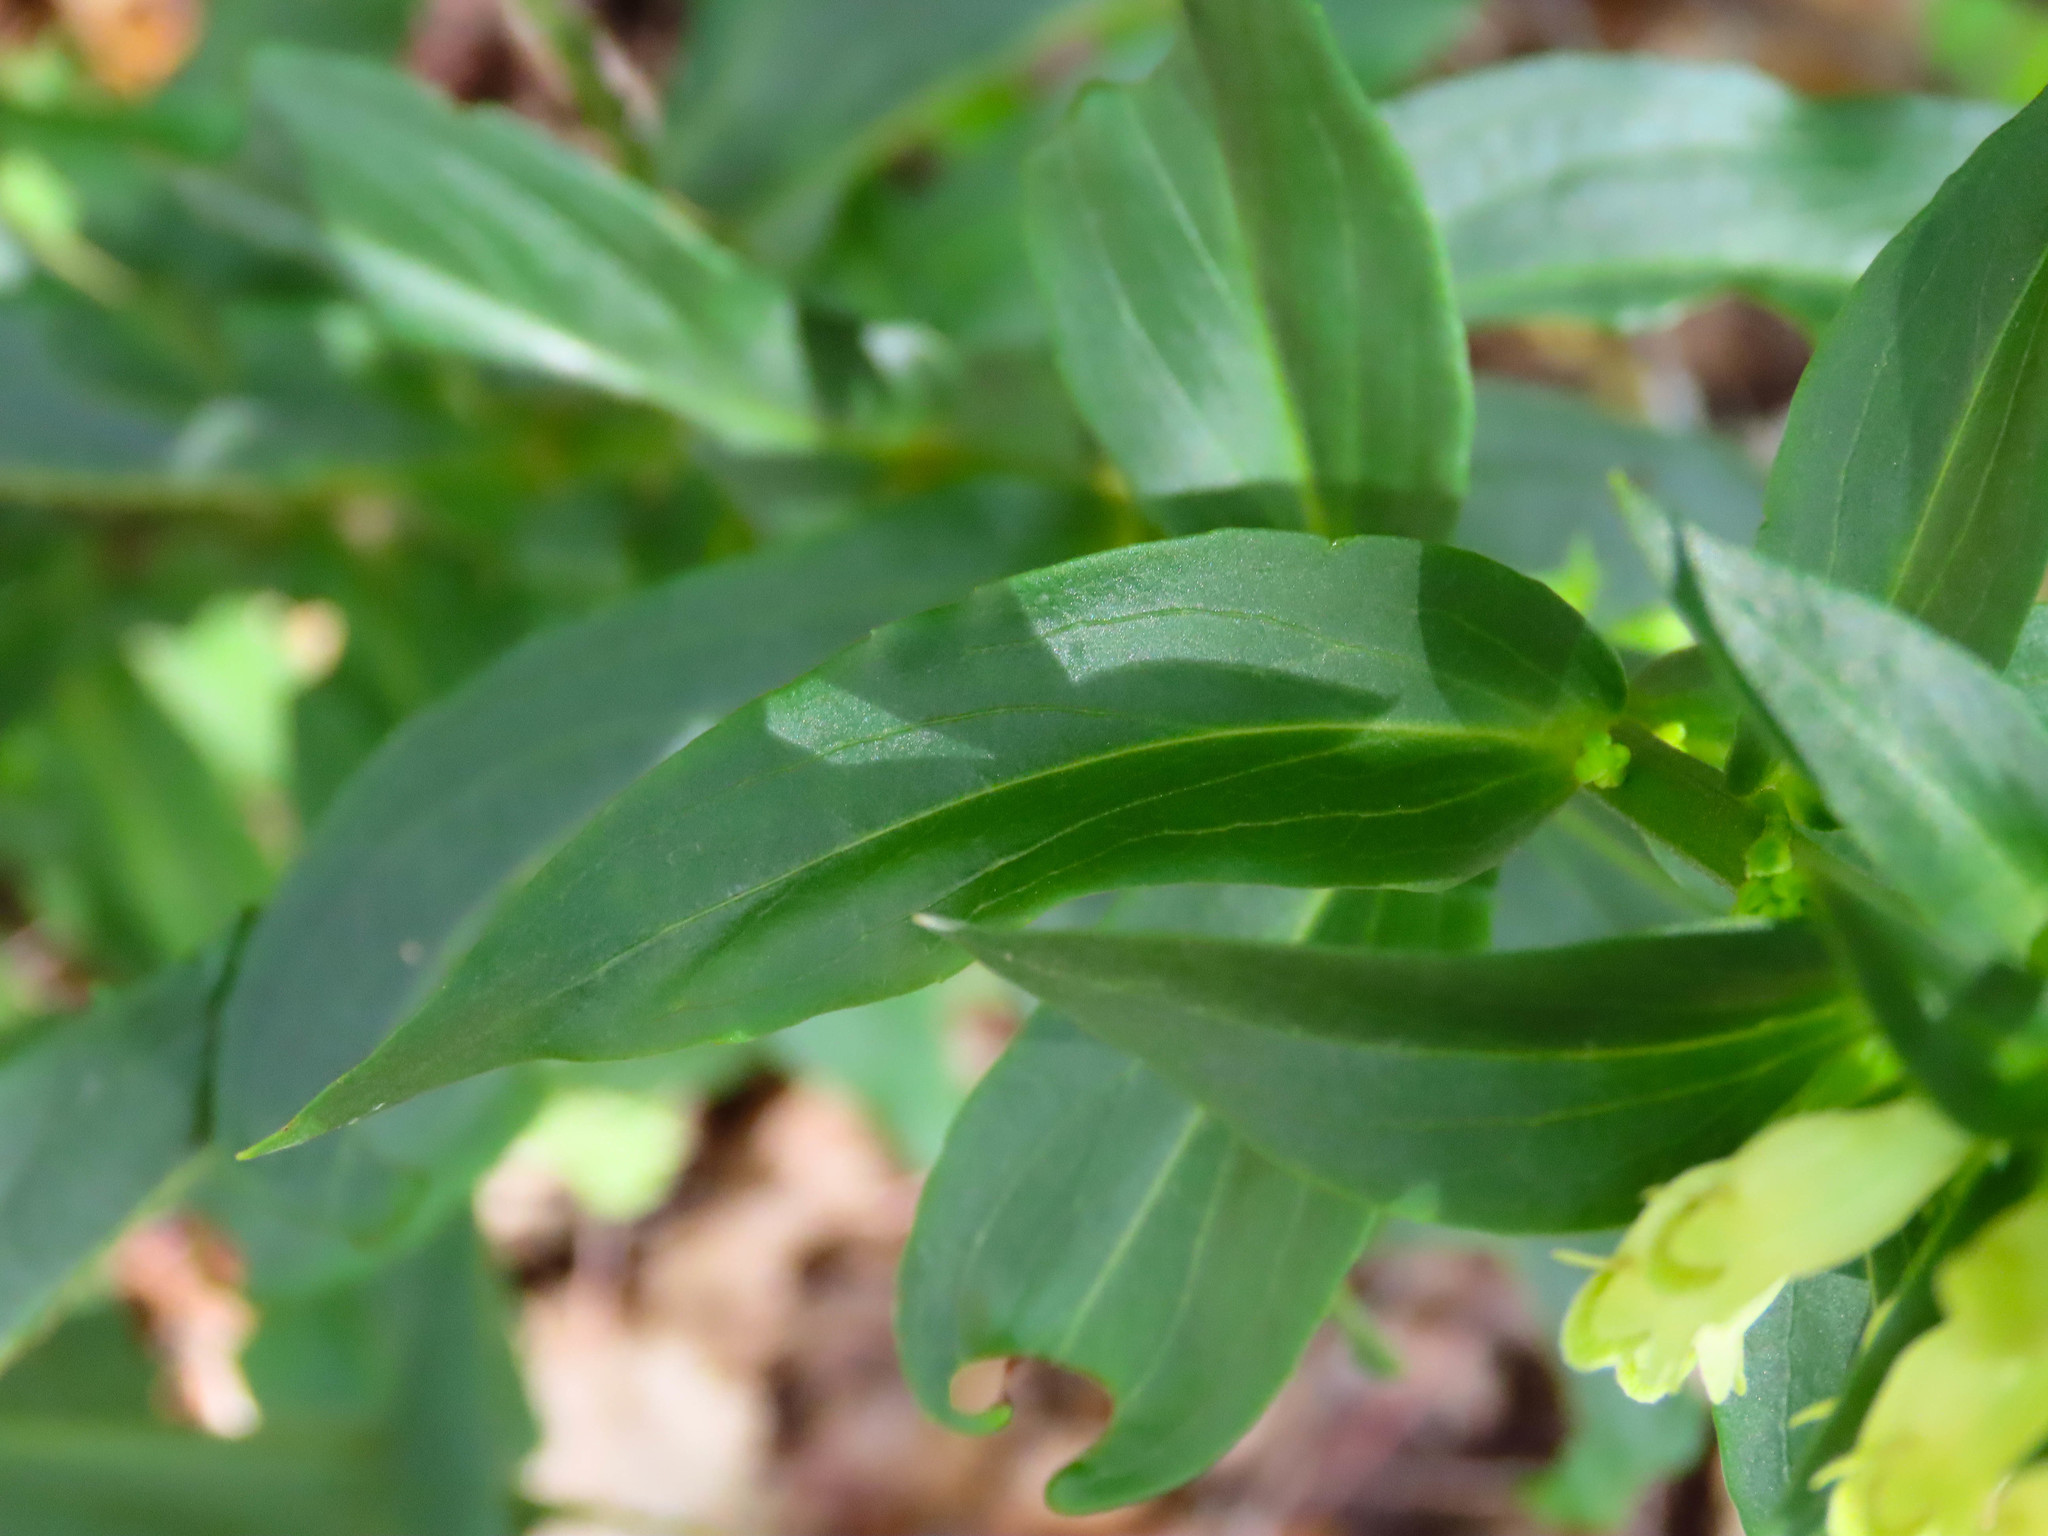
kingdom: Plantae
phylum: Tracheophyta
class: Magnoliopsida
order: Lamiales
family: Plantaginaceae
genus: Digitalis
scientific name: Digitalis lutea
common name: Straw foxglove
